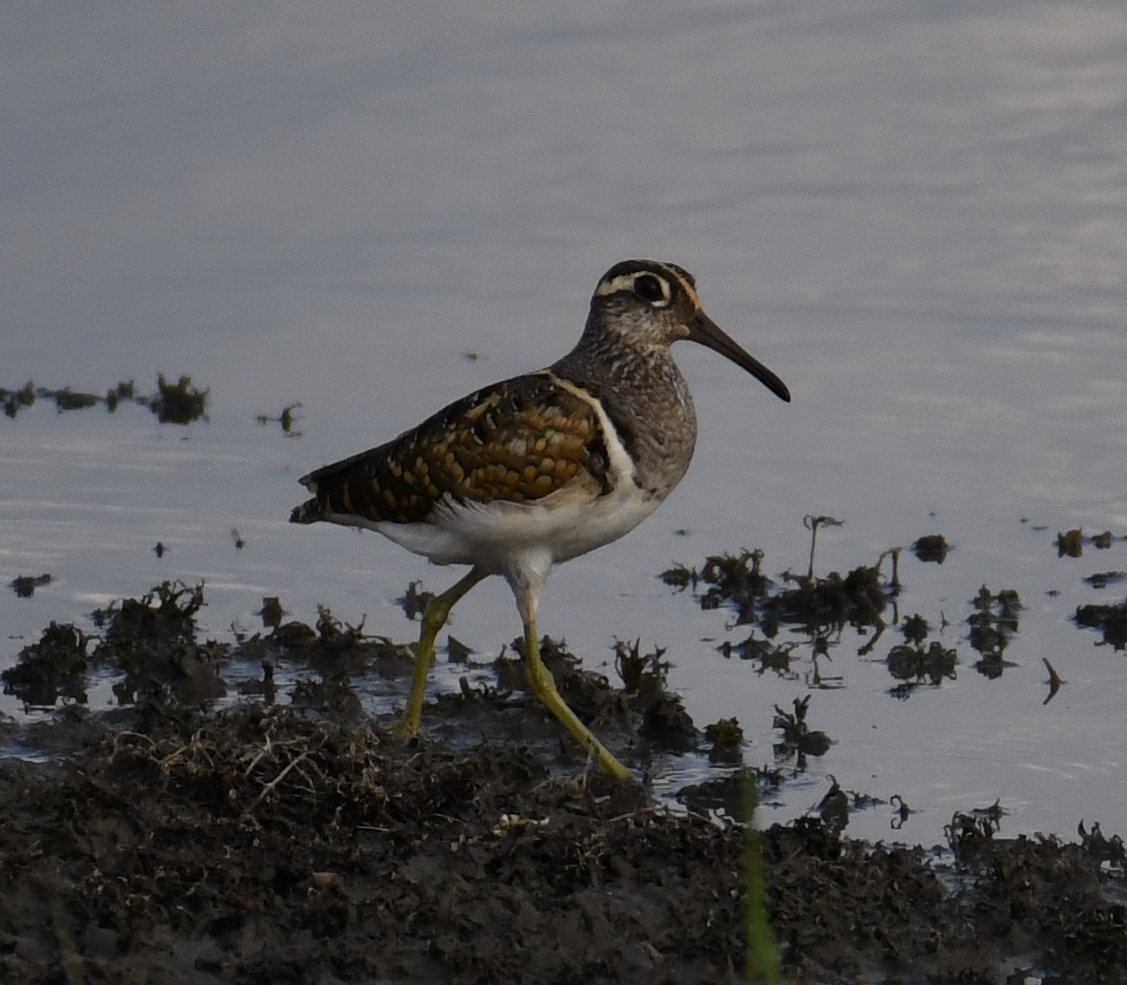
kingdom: Animalia
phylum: Chordata
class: Aves
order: Charadriiformes
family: Rostratulidae
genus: Rostratula
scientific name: Rostratula benghalensis
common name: Greater painted-snipe
